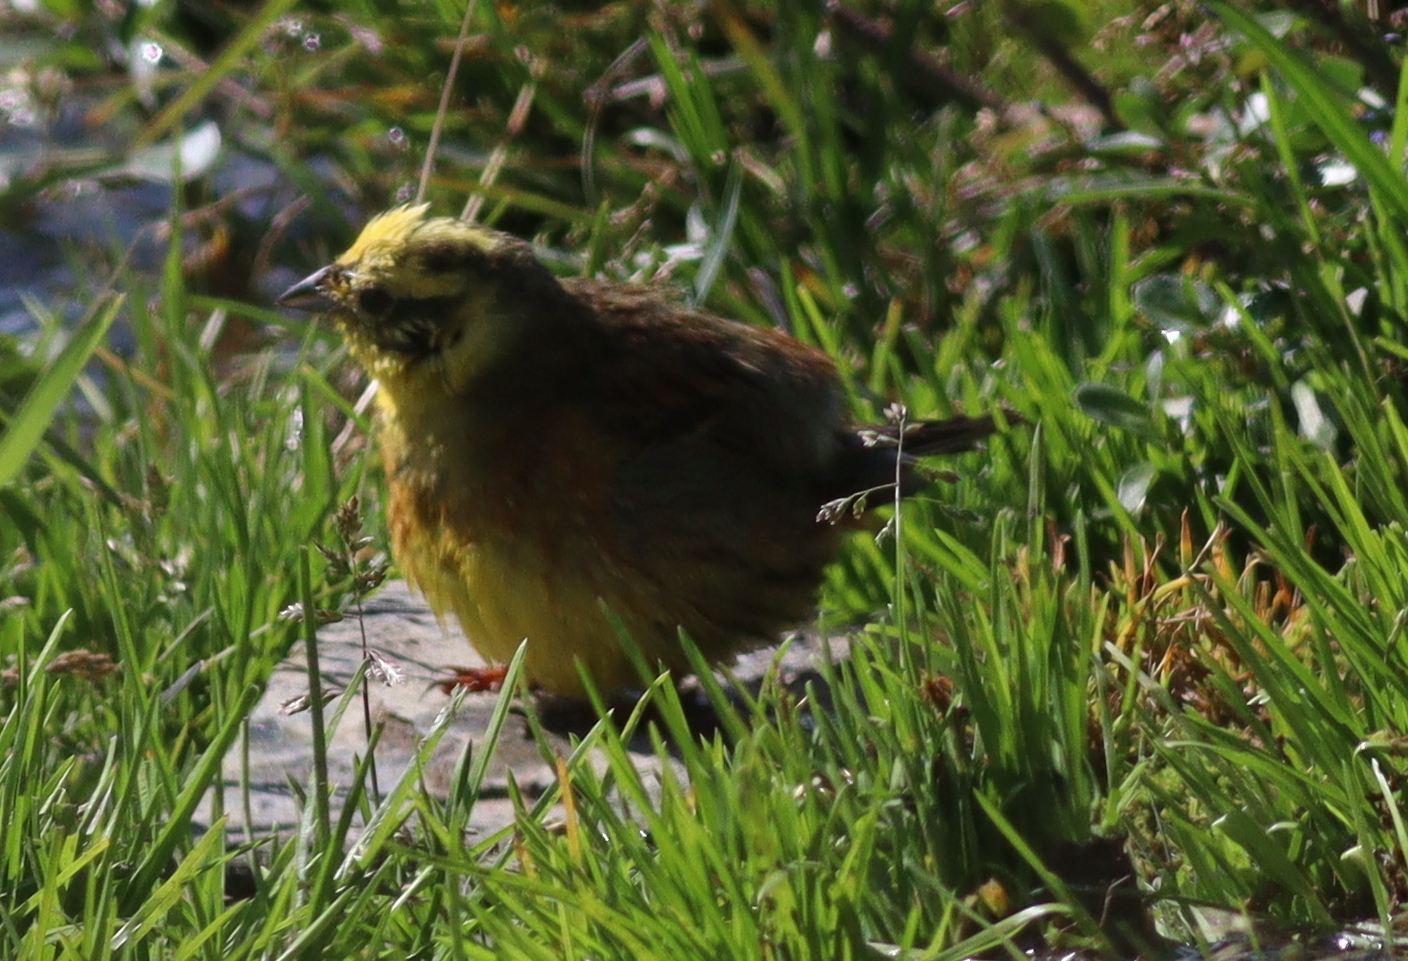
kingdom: Animalia
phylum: Chordata
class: Aves
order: Passeriformes
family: Emberizidae
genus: Emberiza
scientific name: Emberiza citrinella
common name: Yellowhammer
